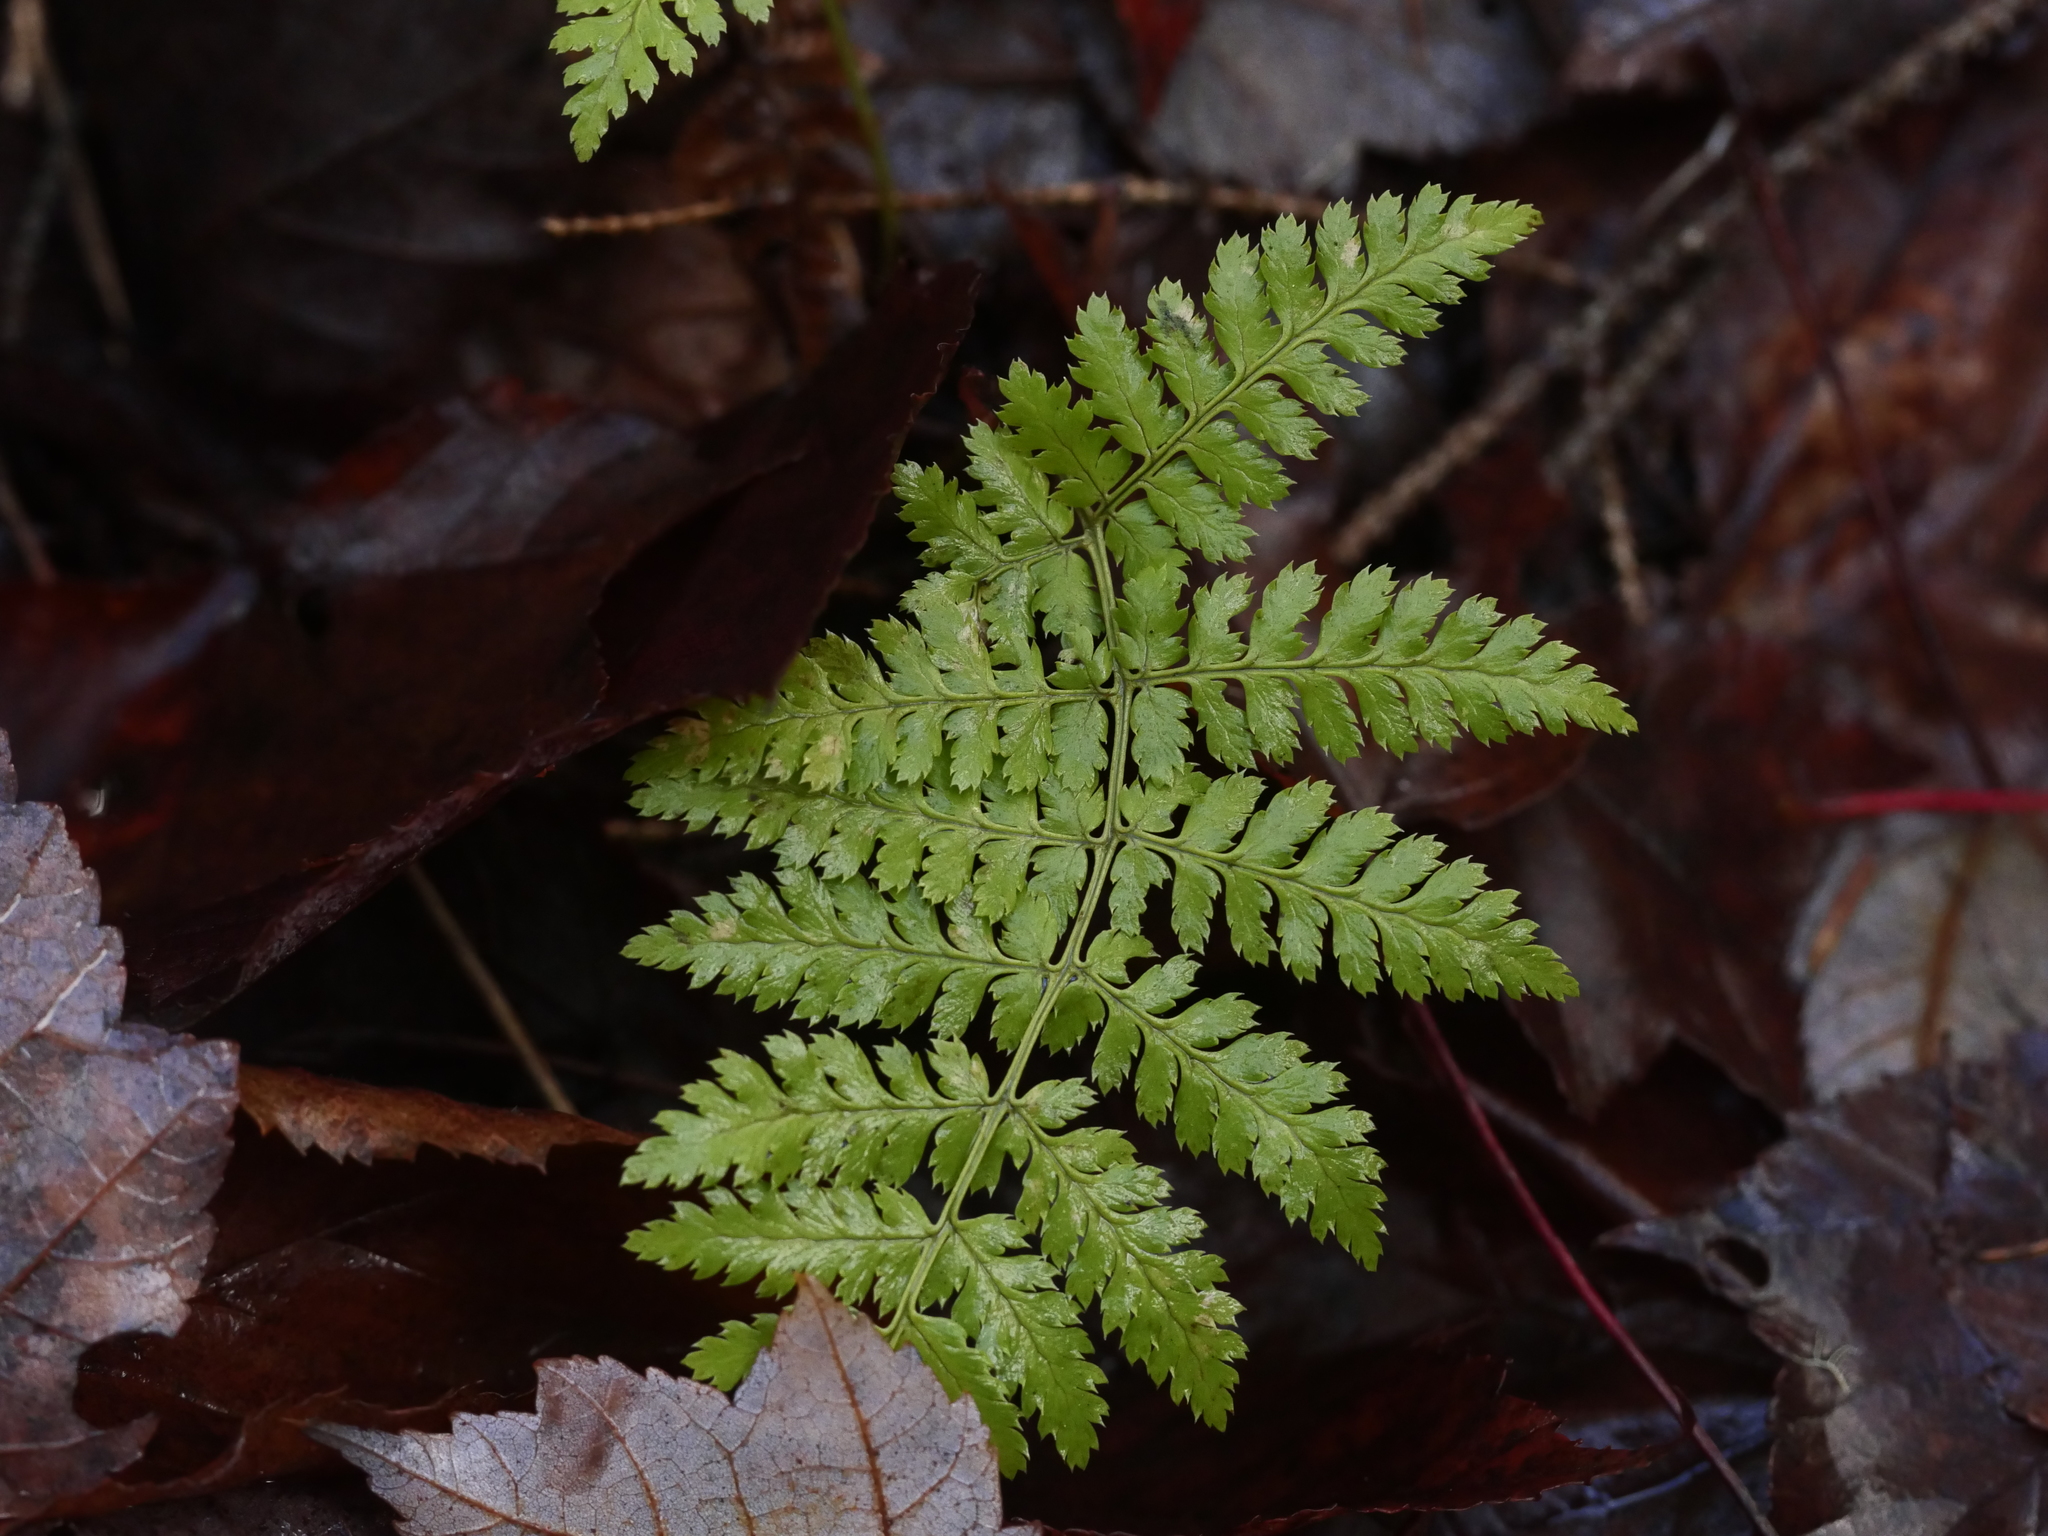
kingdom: Plantae
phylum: Tracheophyta
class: Polypodiopsida
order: Polypodiales
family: Dryopteridaceae
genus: Dryopteris
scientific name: Dryopteris intermedia
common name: Evergreen wood fern
